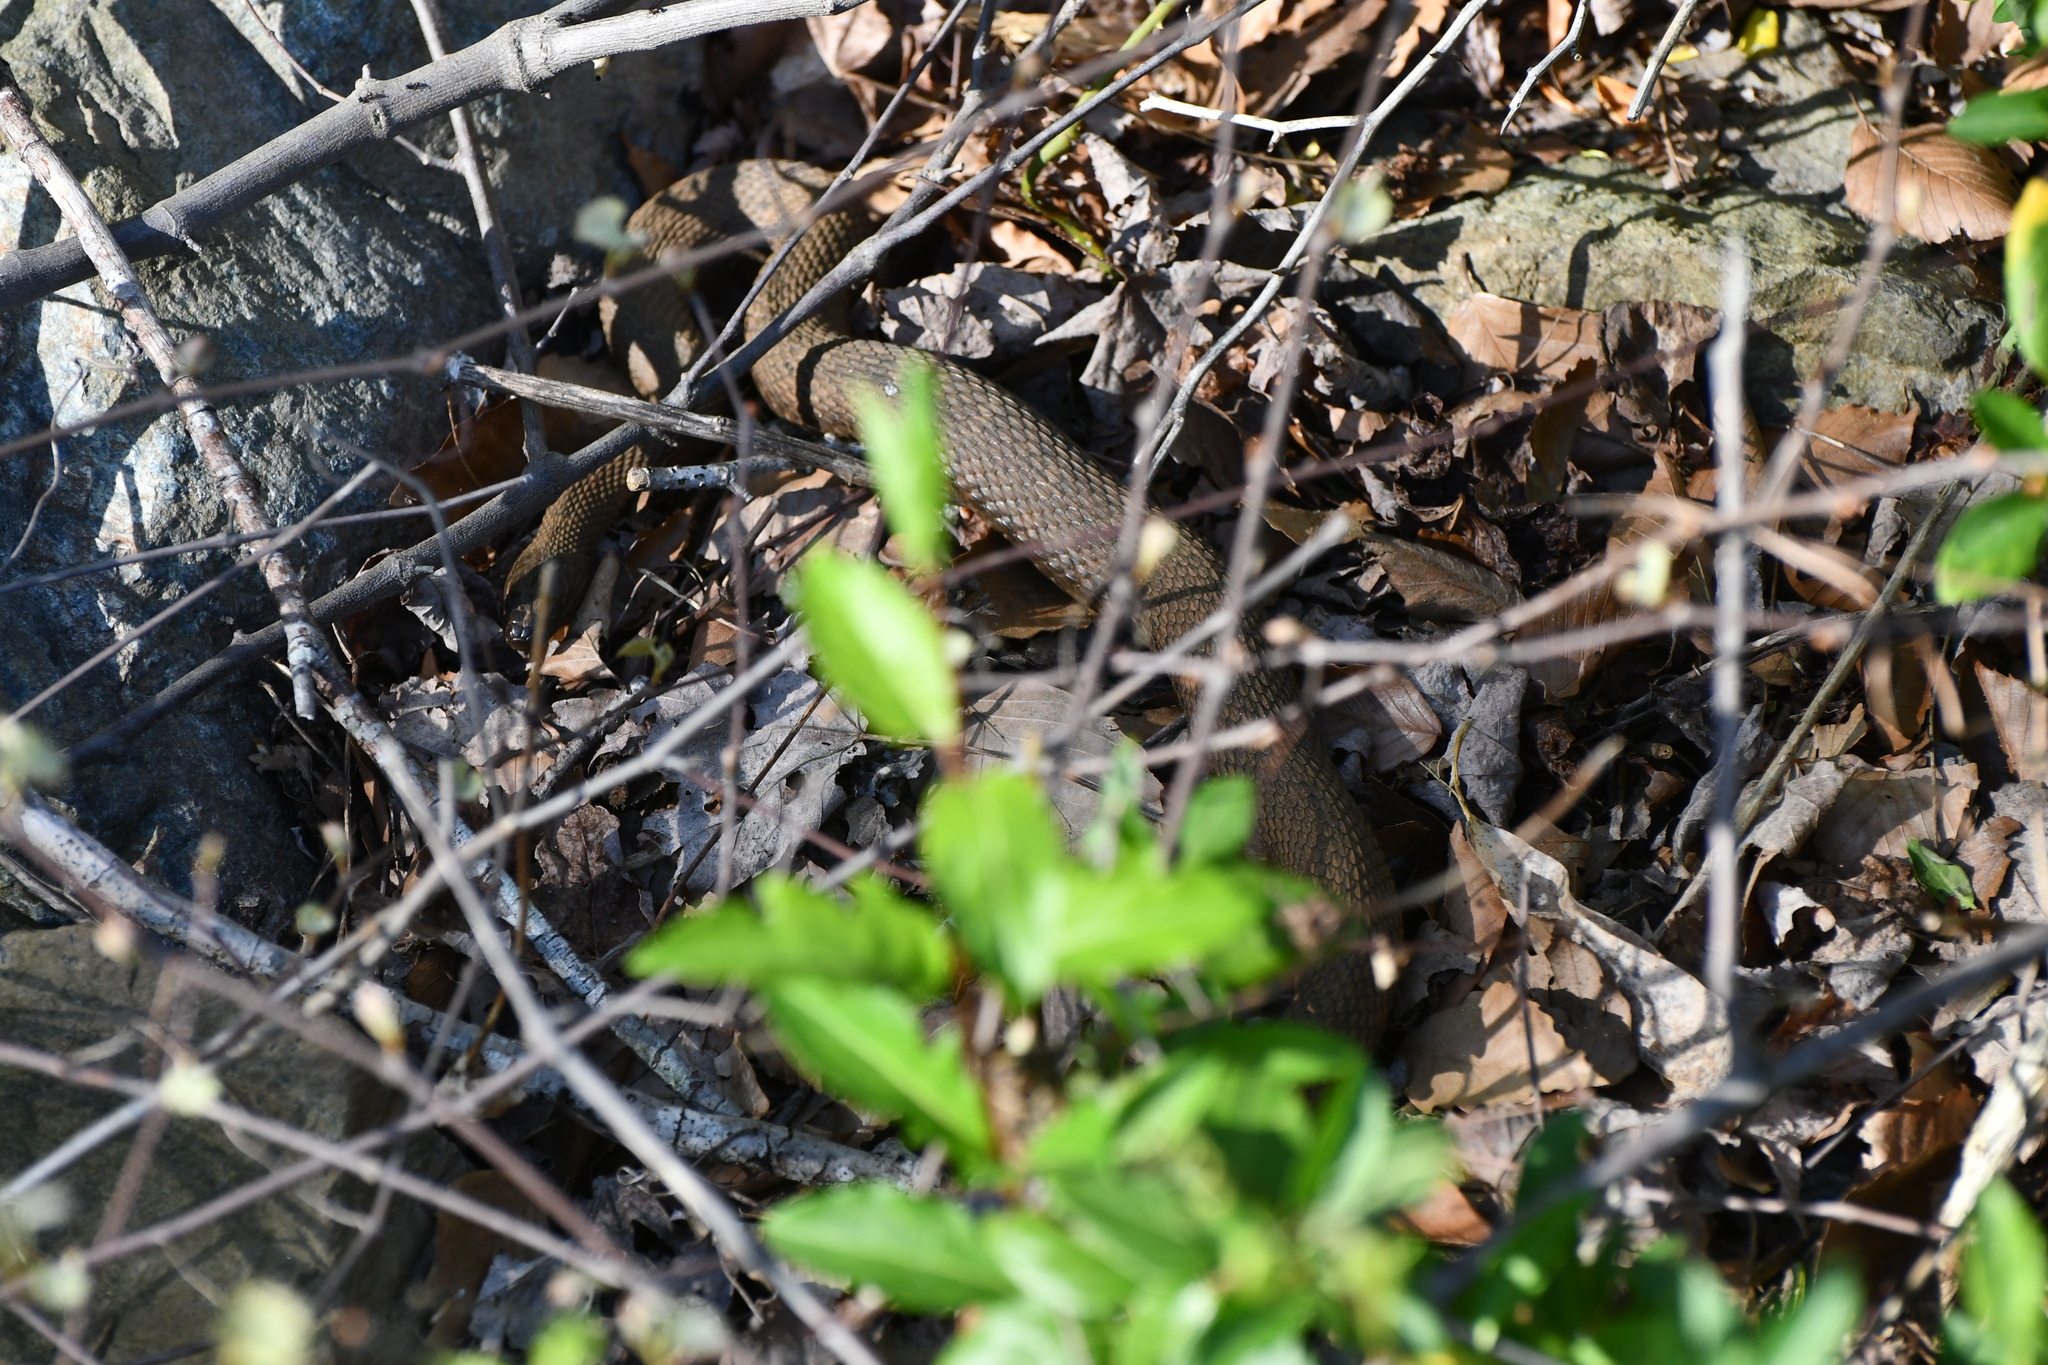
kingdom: Animalia
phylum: Chordata
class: Squamata
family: Colubridae
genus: Nerodia
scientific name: Nerodia sipedon
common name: Northern water snake
